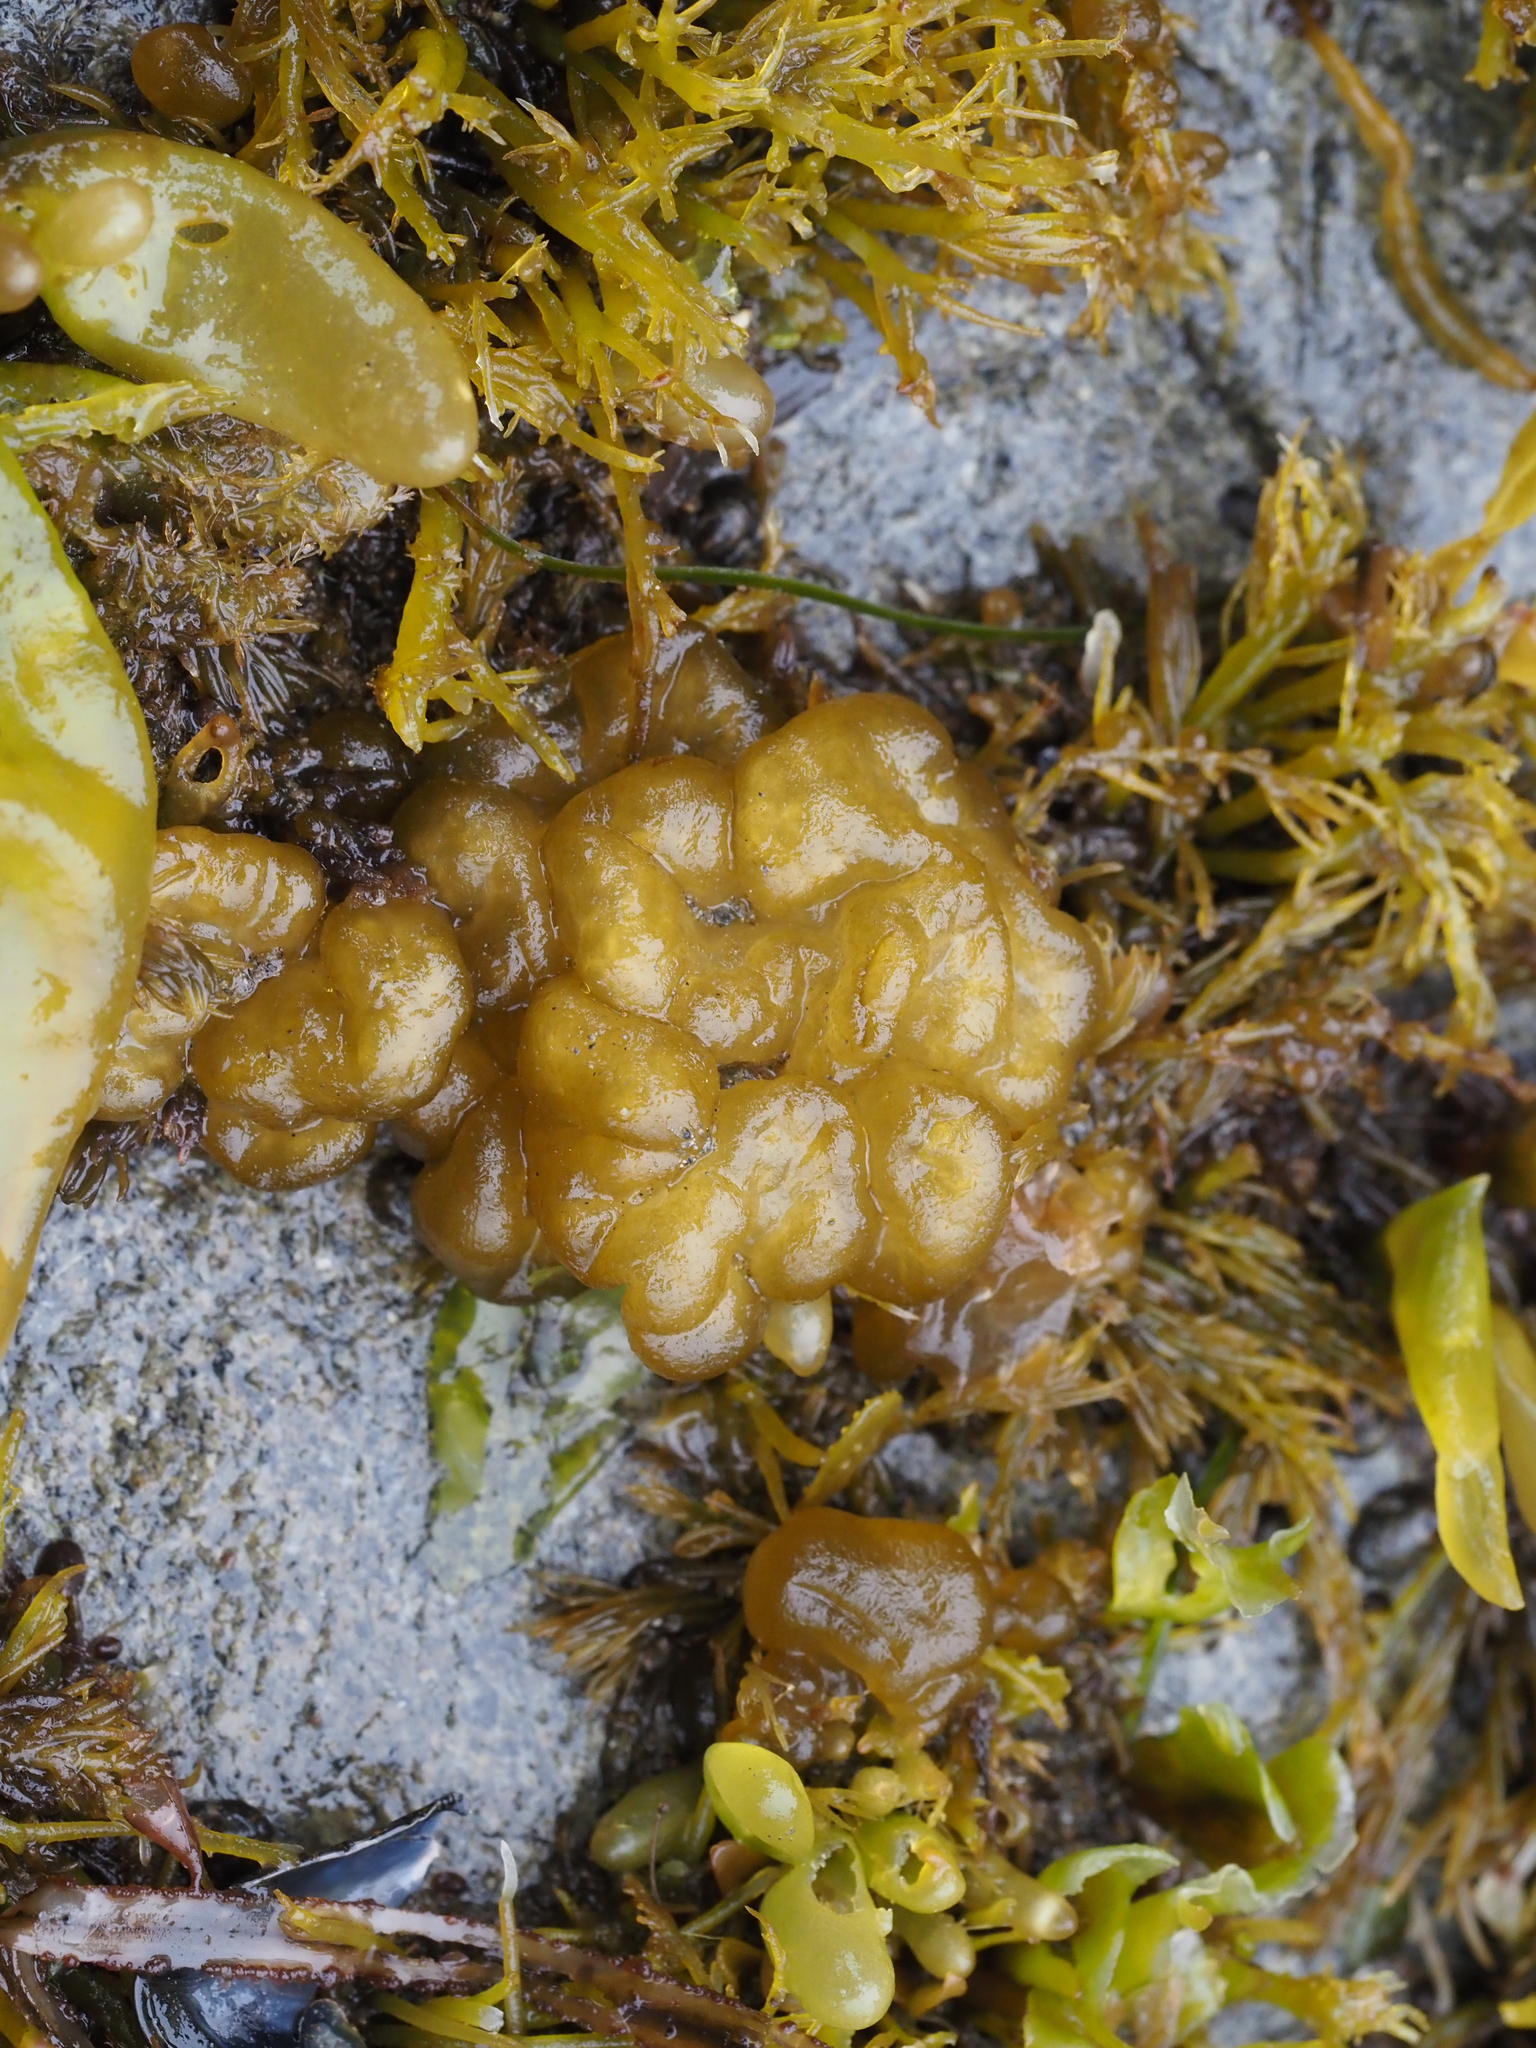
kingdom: Chromista
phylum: Ochrophyta
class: Phaeophyceae
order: Ectocarpales
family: Chordariaceae
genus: Leathesia
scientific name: Leathesia marina
